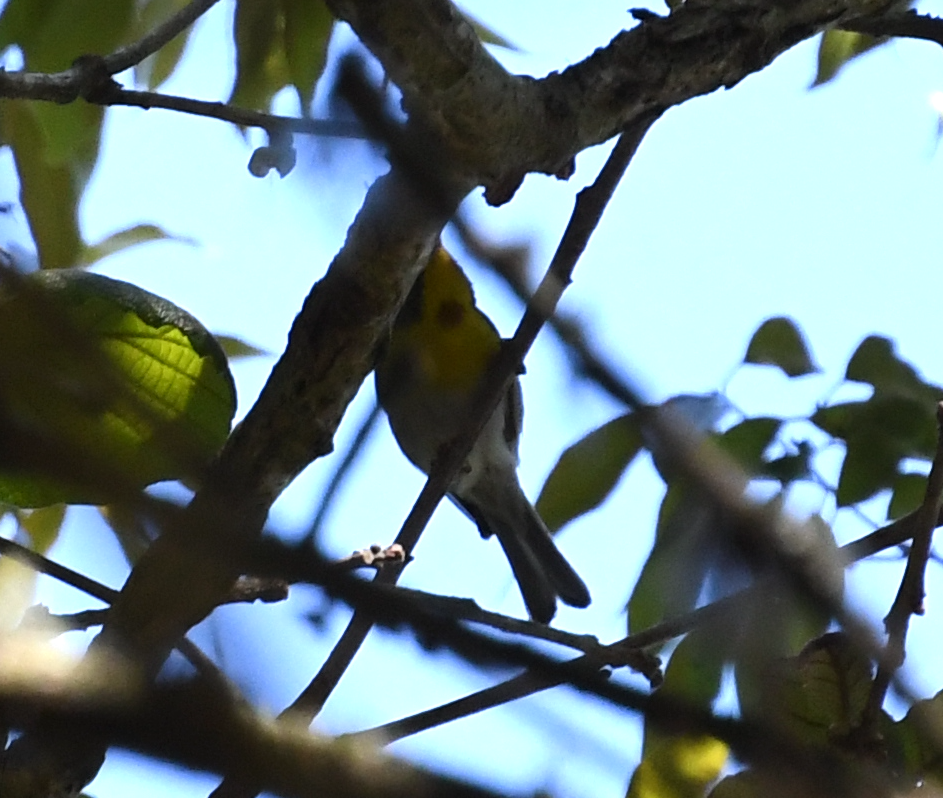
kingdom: Animalia
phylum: Chordata
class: Aves
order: Passeriformes
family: Parulidae
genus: Oreothlypis
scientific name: Oreothlypis superciliosa
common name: Crescent-chested warbler
